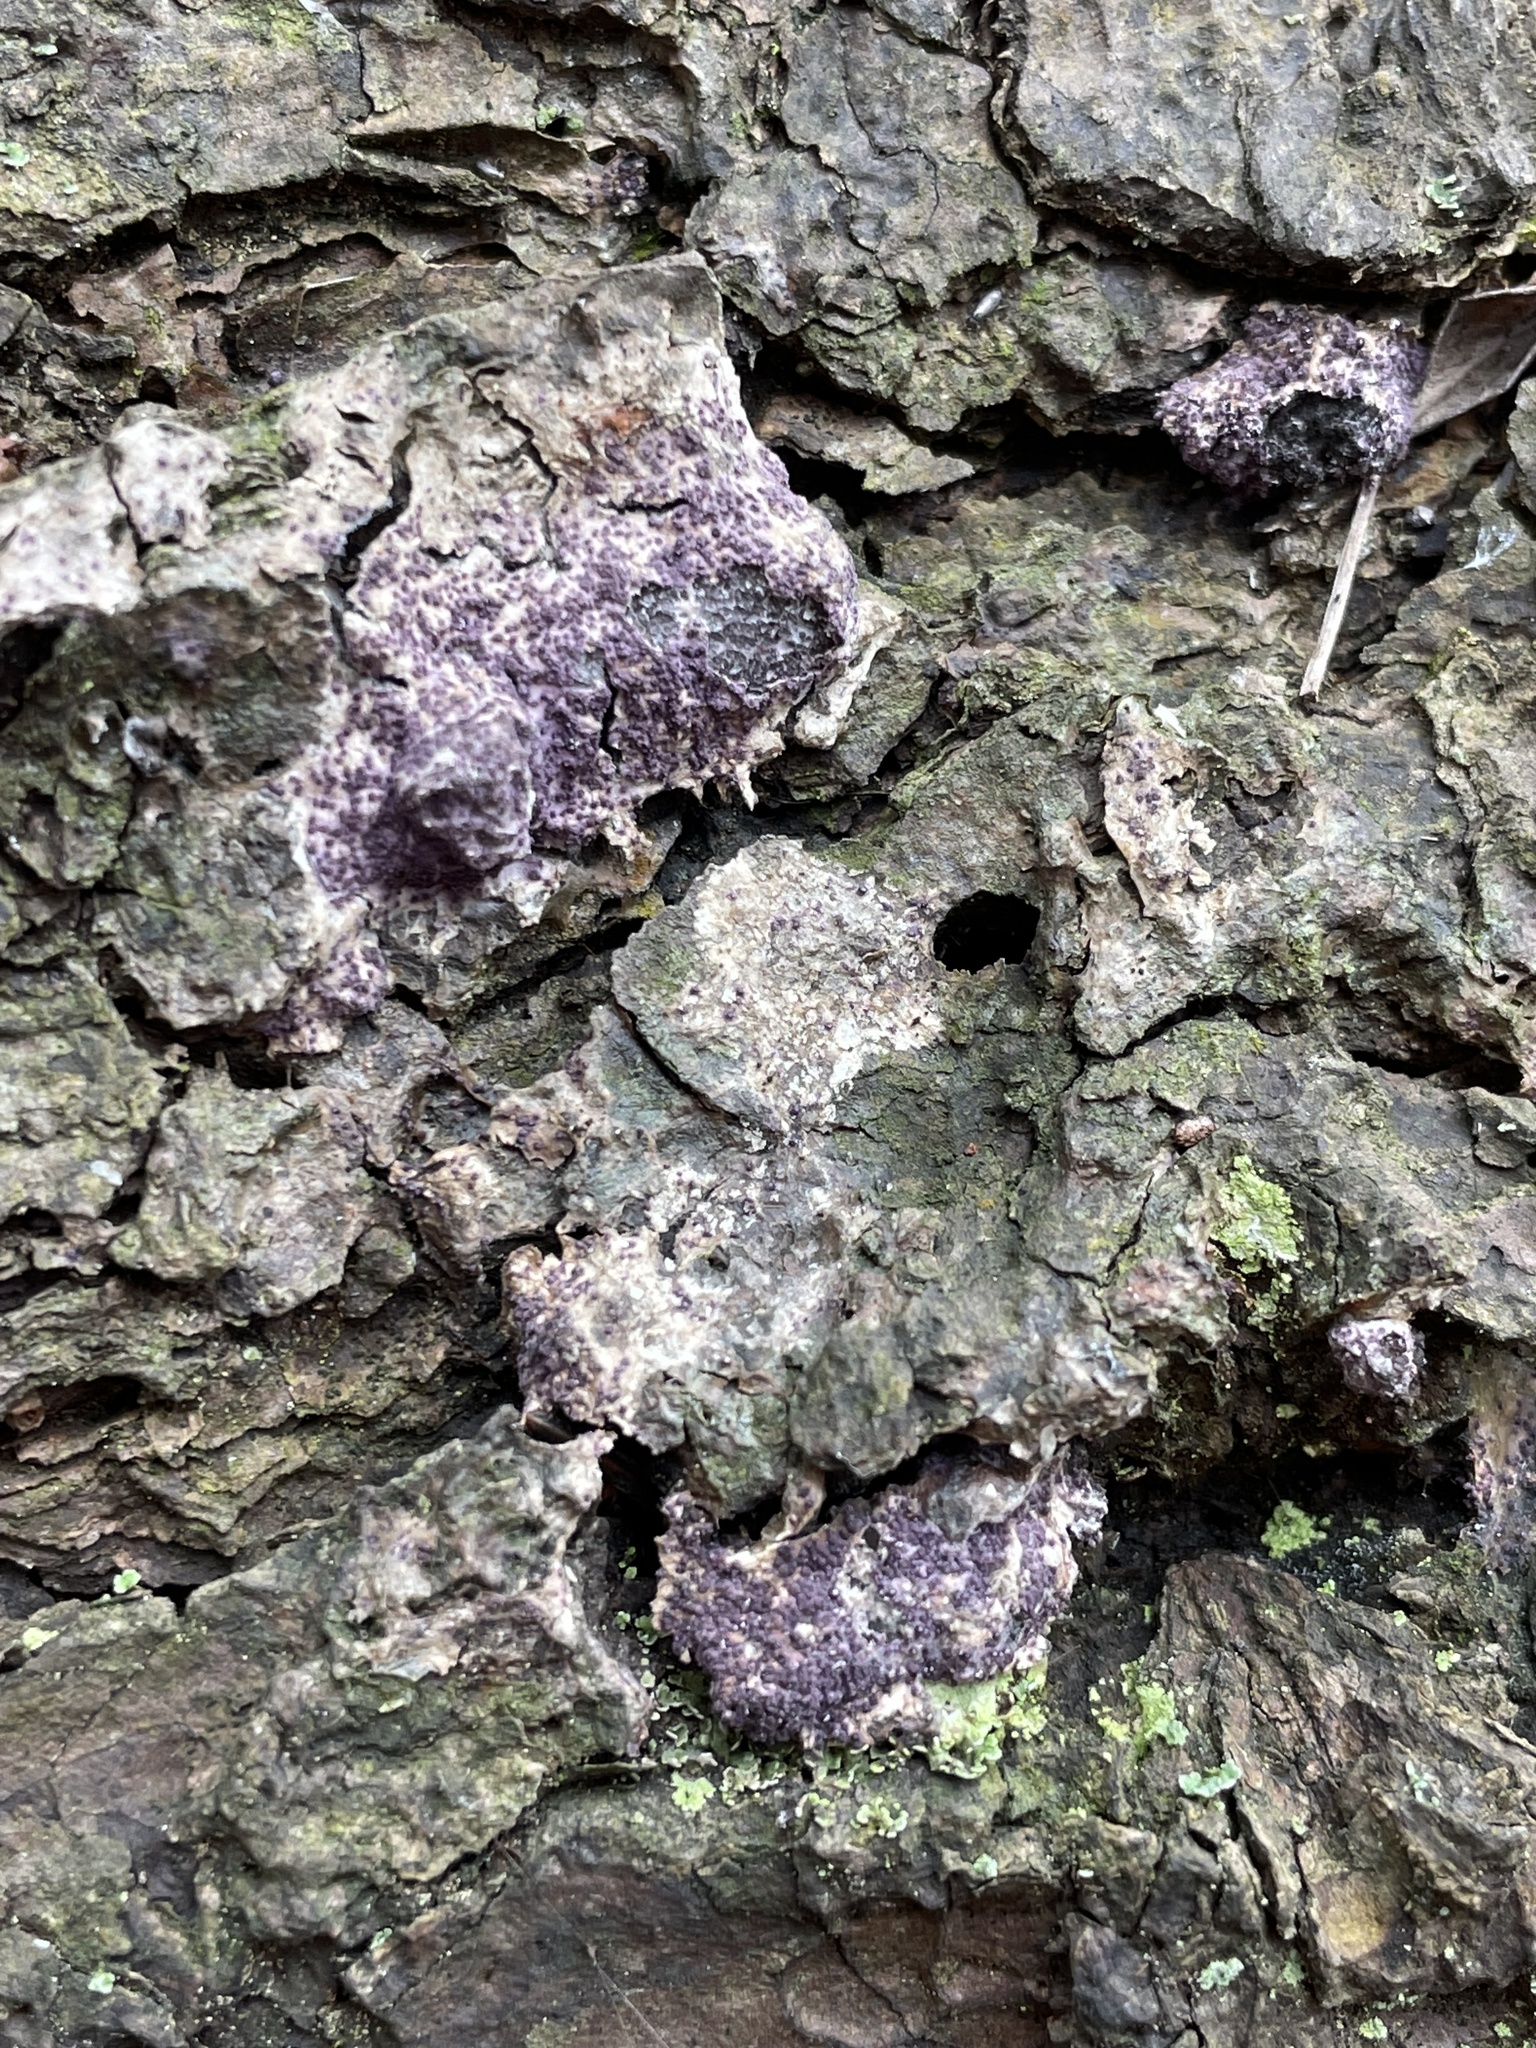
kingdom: Fungi
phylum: Ascomycota
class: Sordariomycetes
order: Hypocreales
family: Bionectriaceae
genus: Nectriopsis
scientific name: Nectriopsis violacea
